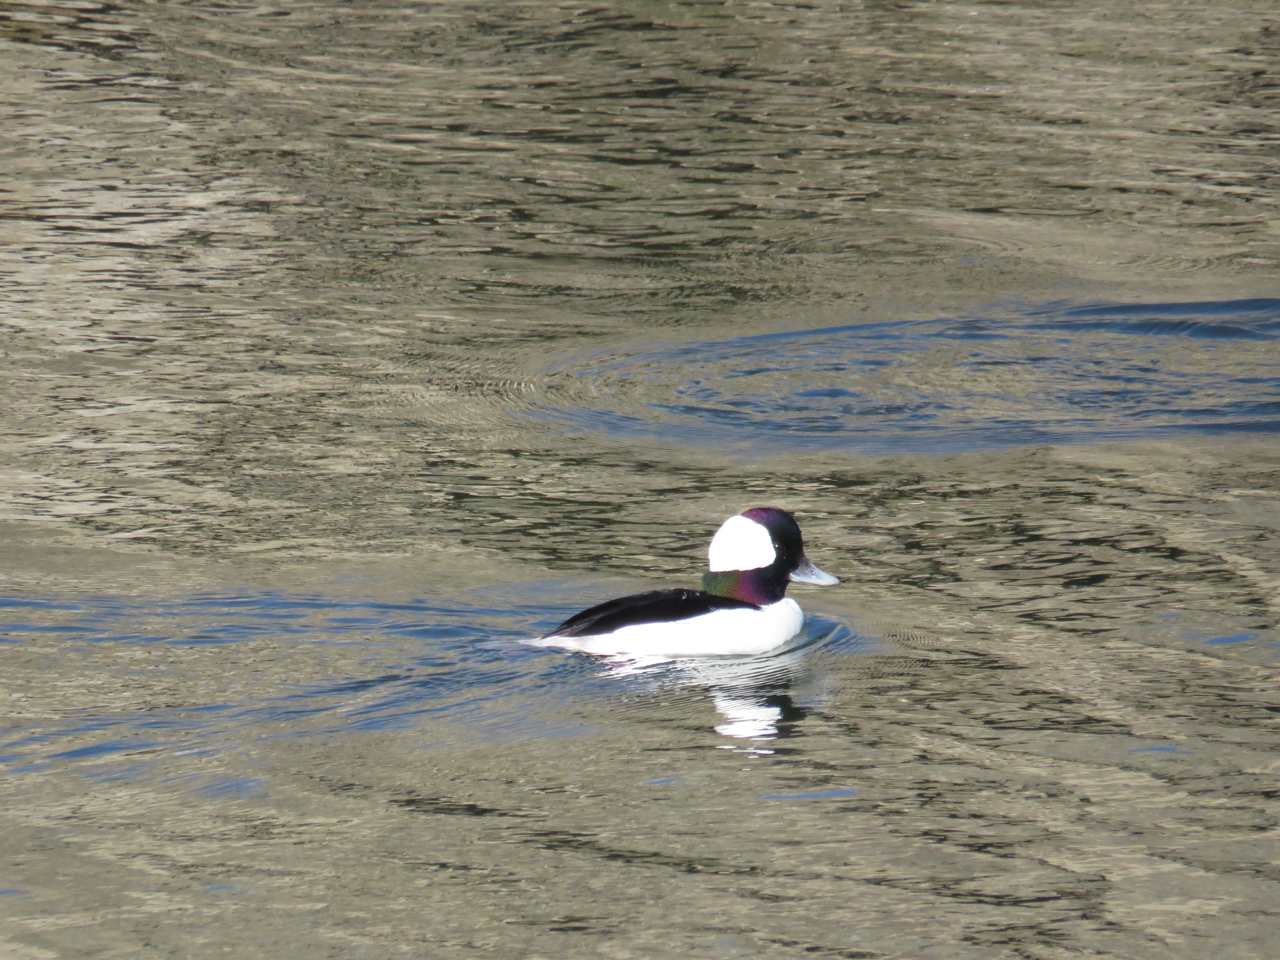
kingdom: Animalia
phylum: Chordata
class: Aves
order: Anseriformes
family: Anatidae
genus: Bucephala
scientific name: Bucephala albeola
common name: Bufflehead
